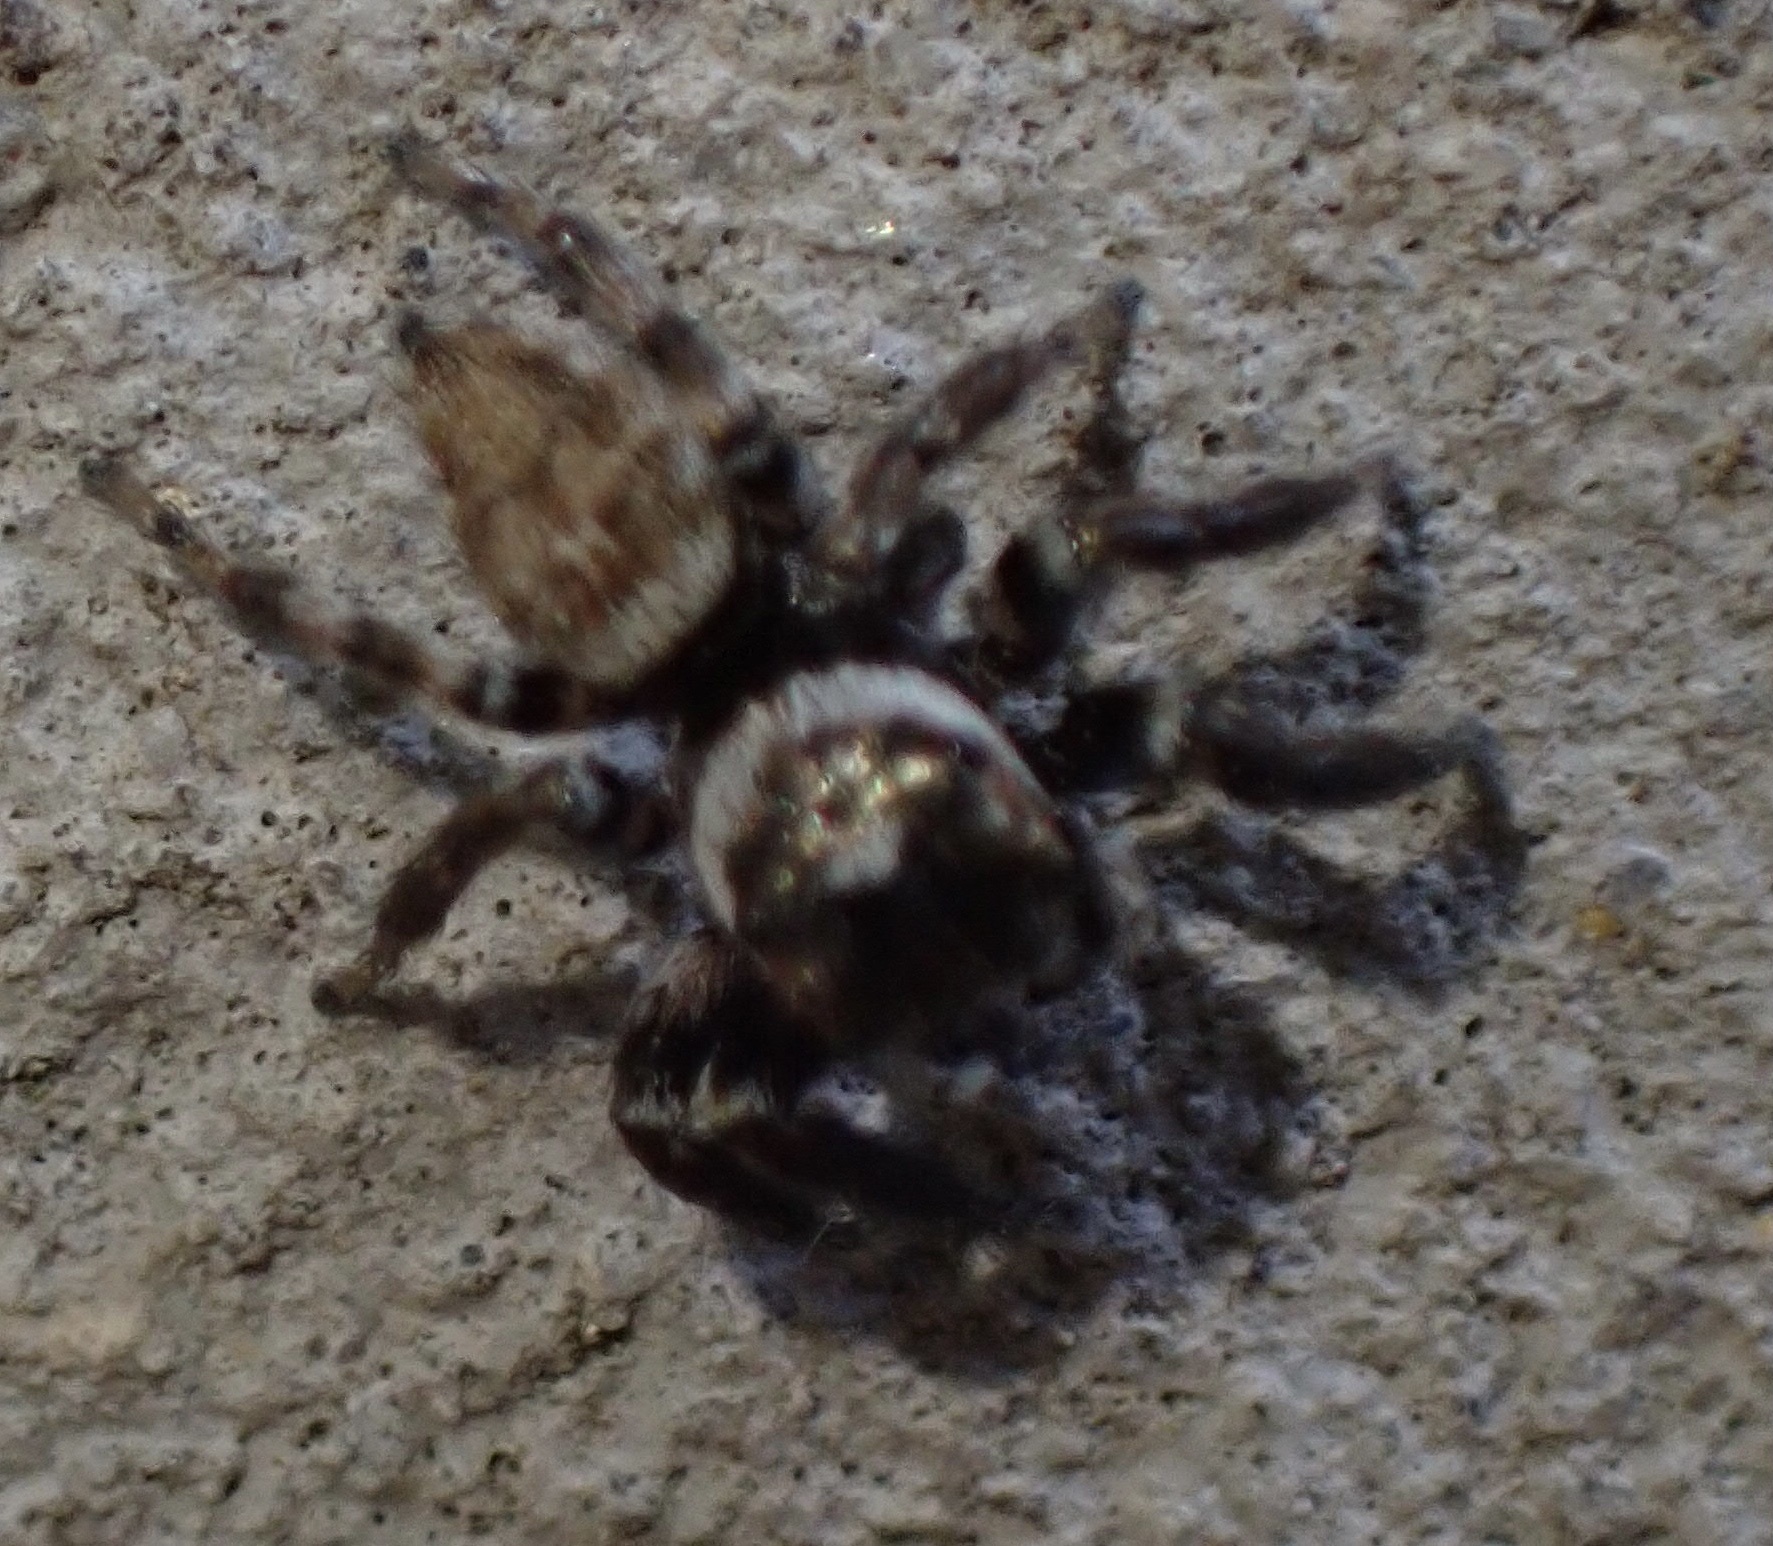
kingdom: Animalia
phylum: Arthropoda
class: Arachnida
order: Araneae
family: Salticidae
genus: Evarcha
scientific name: Evarcha jucunda
